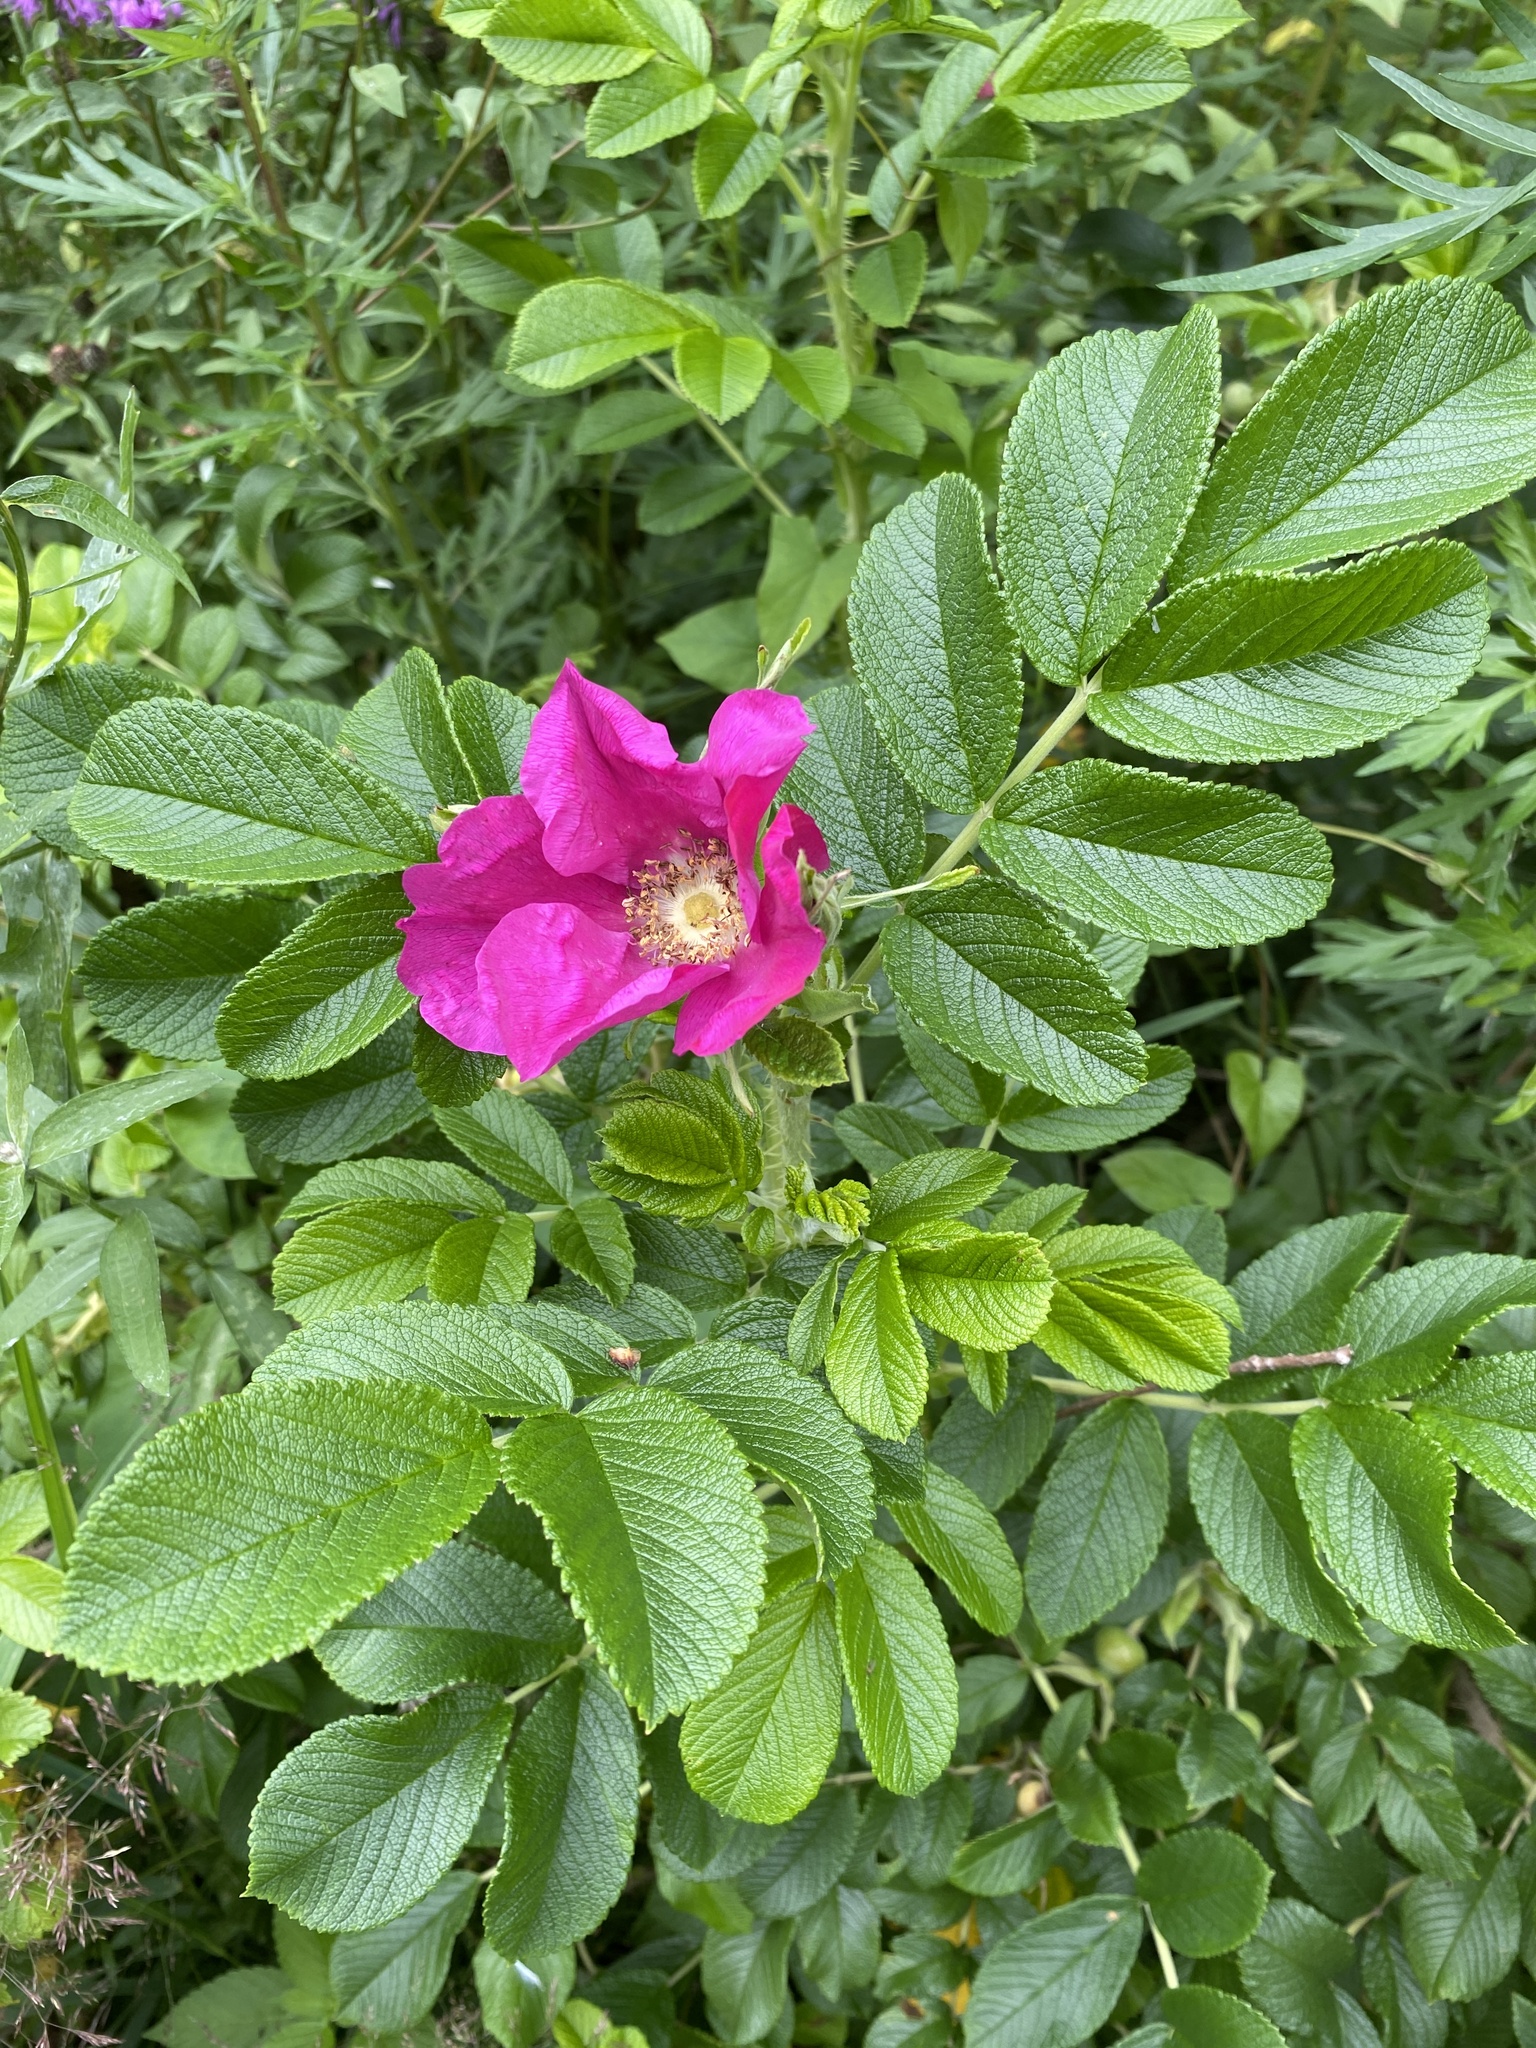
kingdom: Plantae
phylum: Tracheophyta
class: Magnoliopsida
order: Rosales
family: Rosaceae
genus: Rosa
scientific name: Rosa rugosa
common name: Japanese rose
